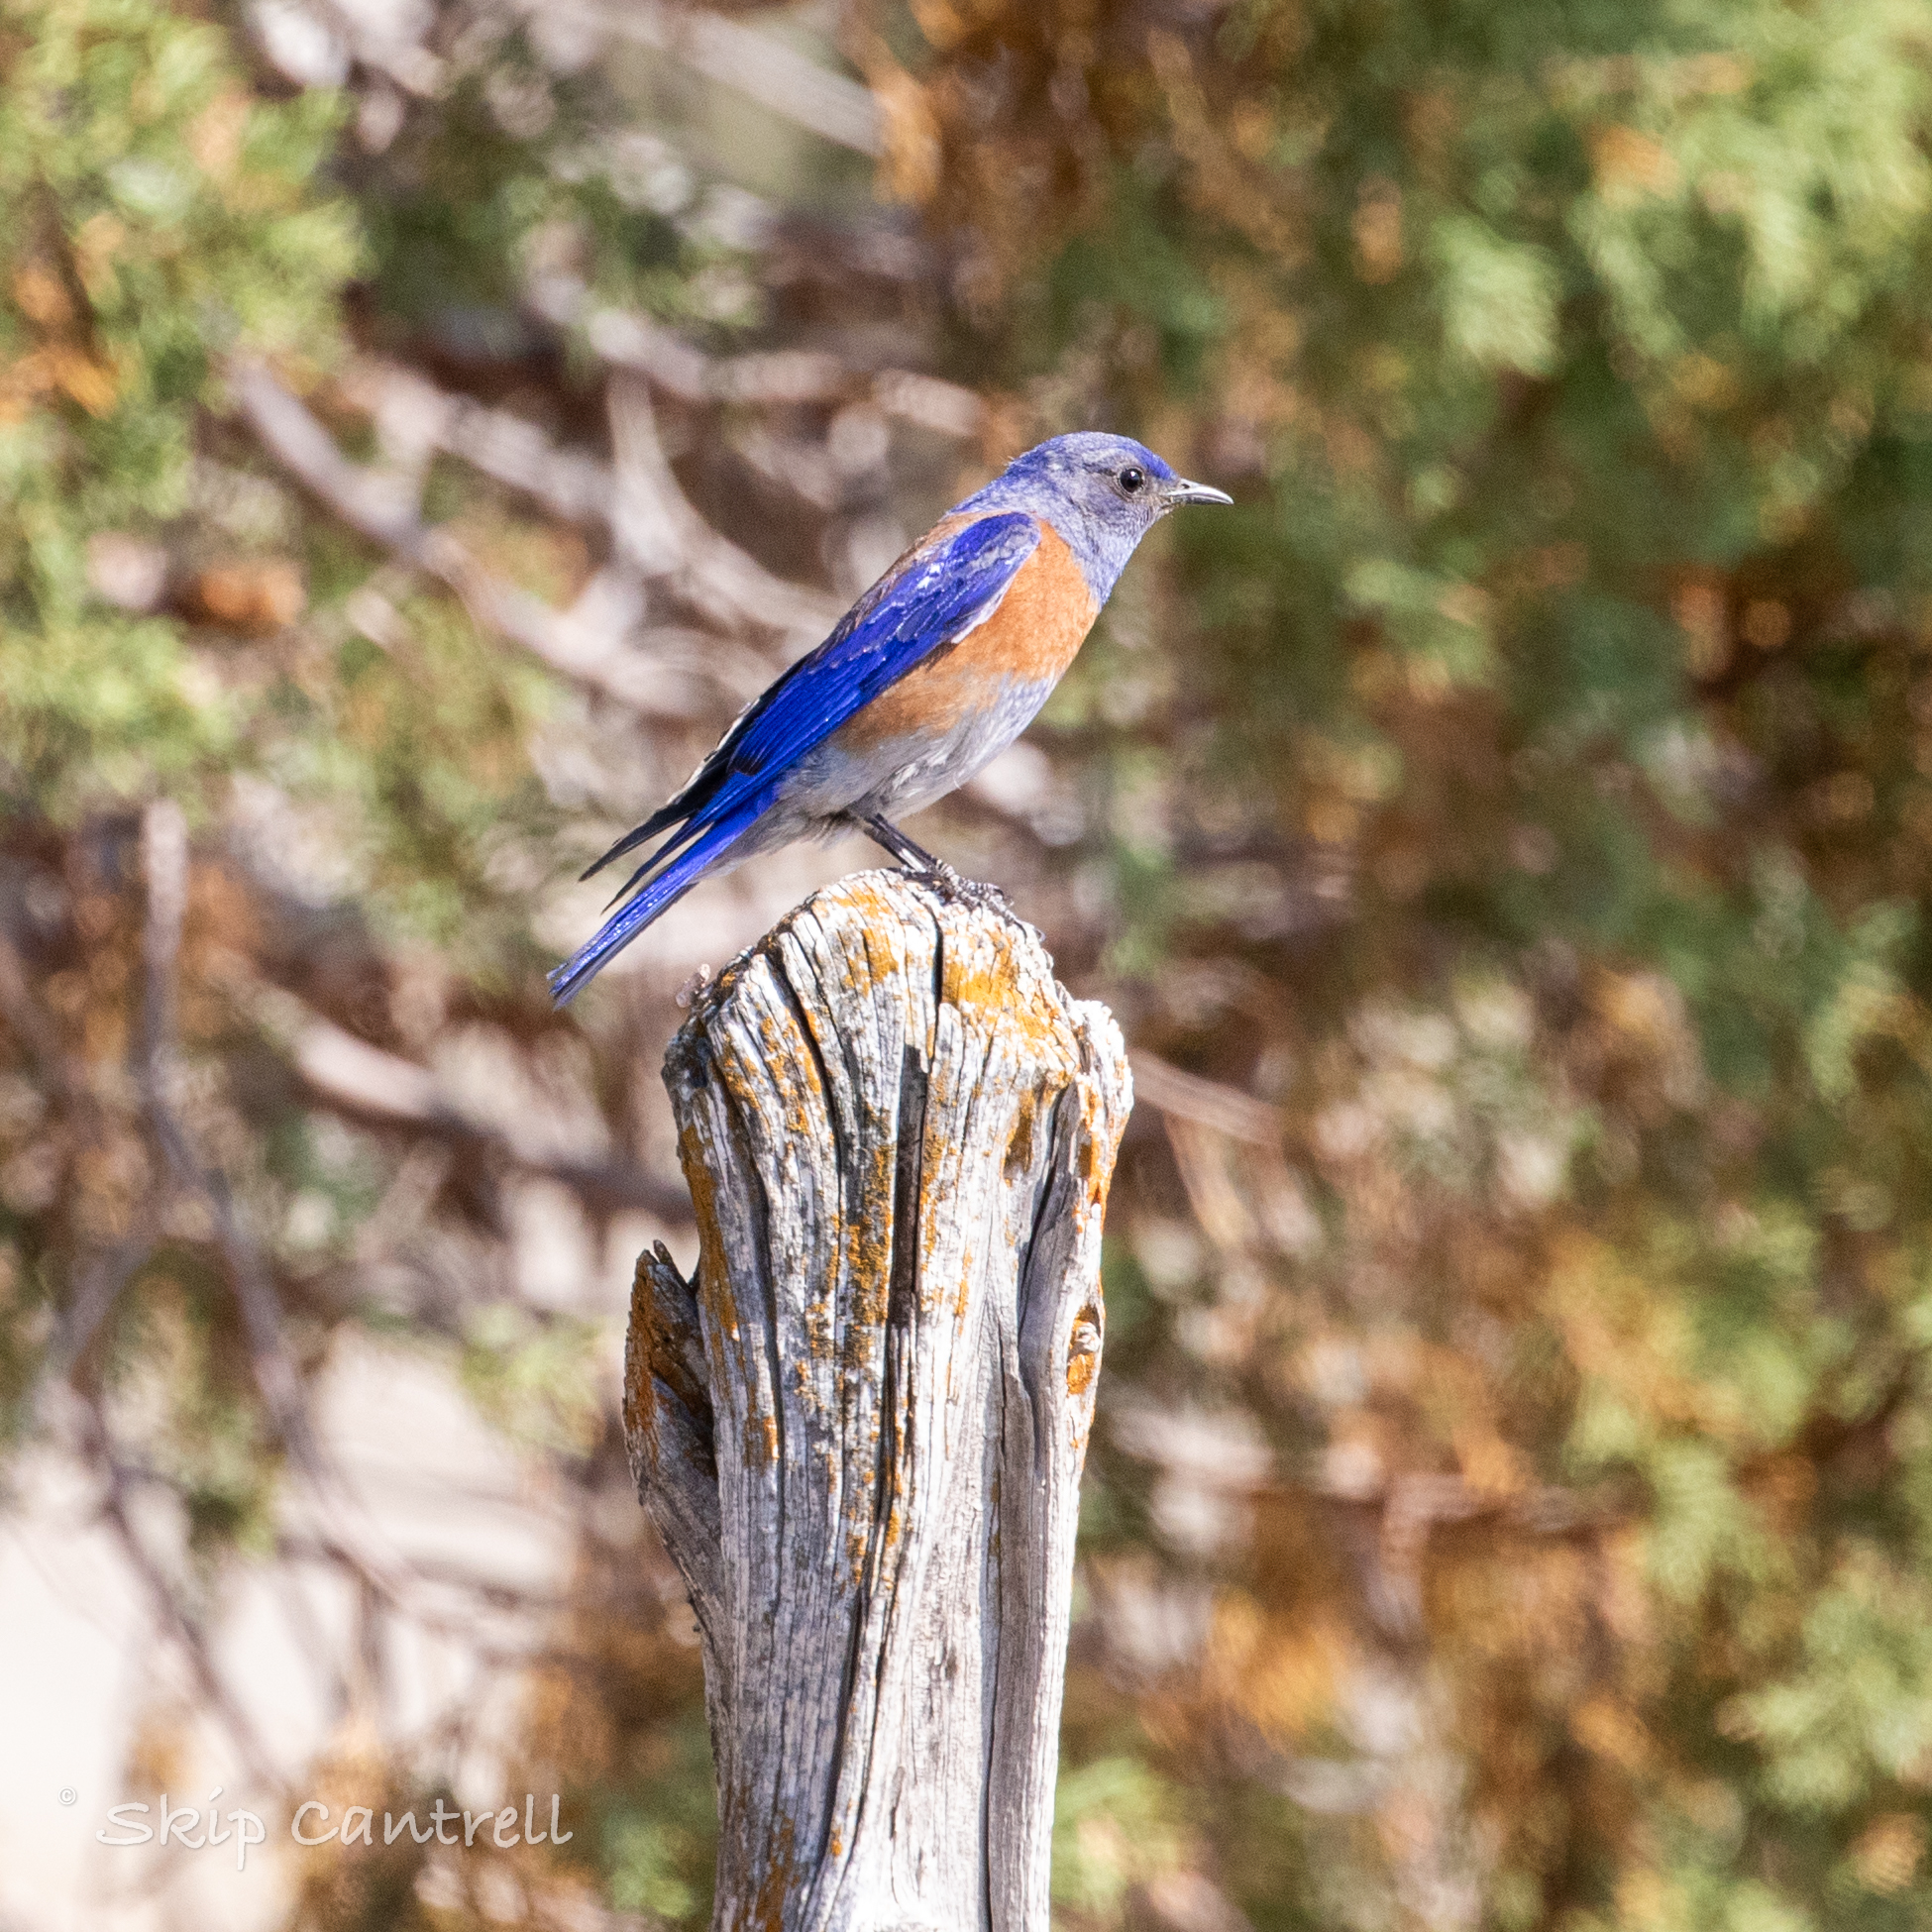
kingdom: Animalia
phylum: Chordata
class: Aves
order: Passeriformes
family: Turdidae
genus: Sialia
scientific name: Sialia mexicana
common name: Western bluebird
